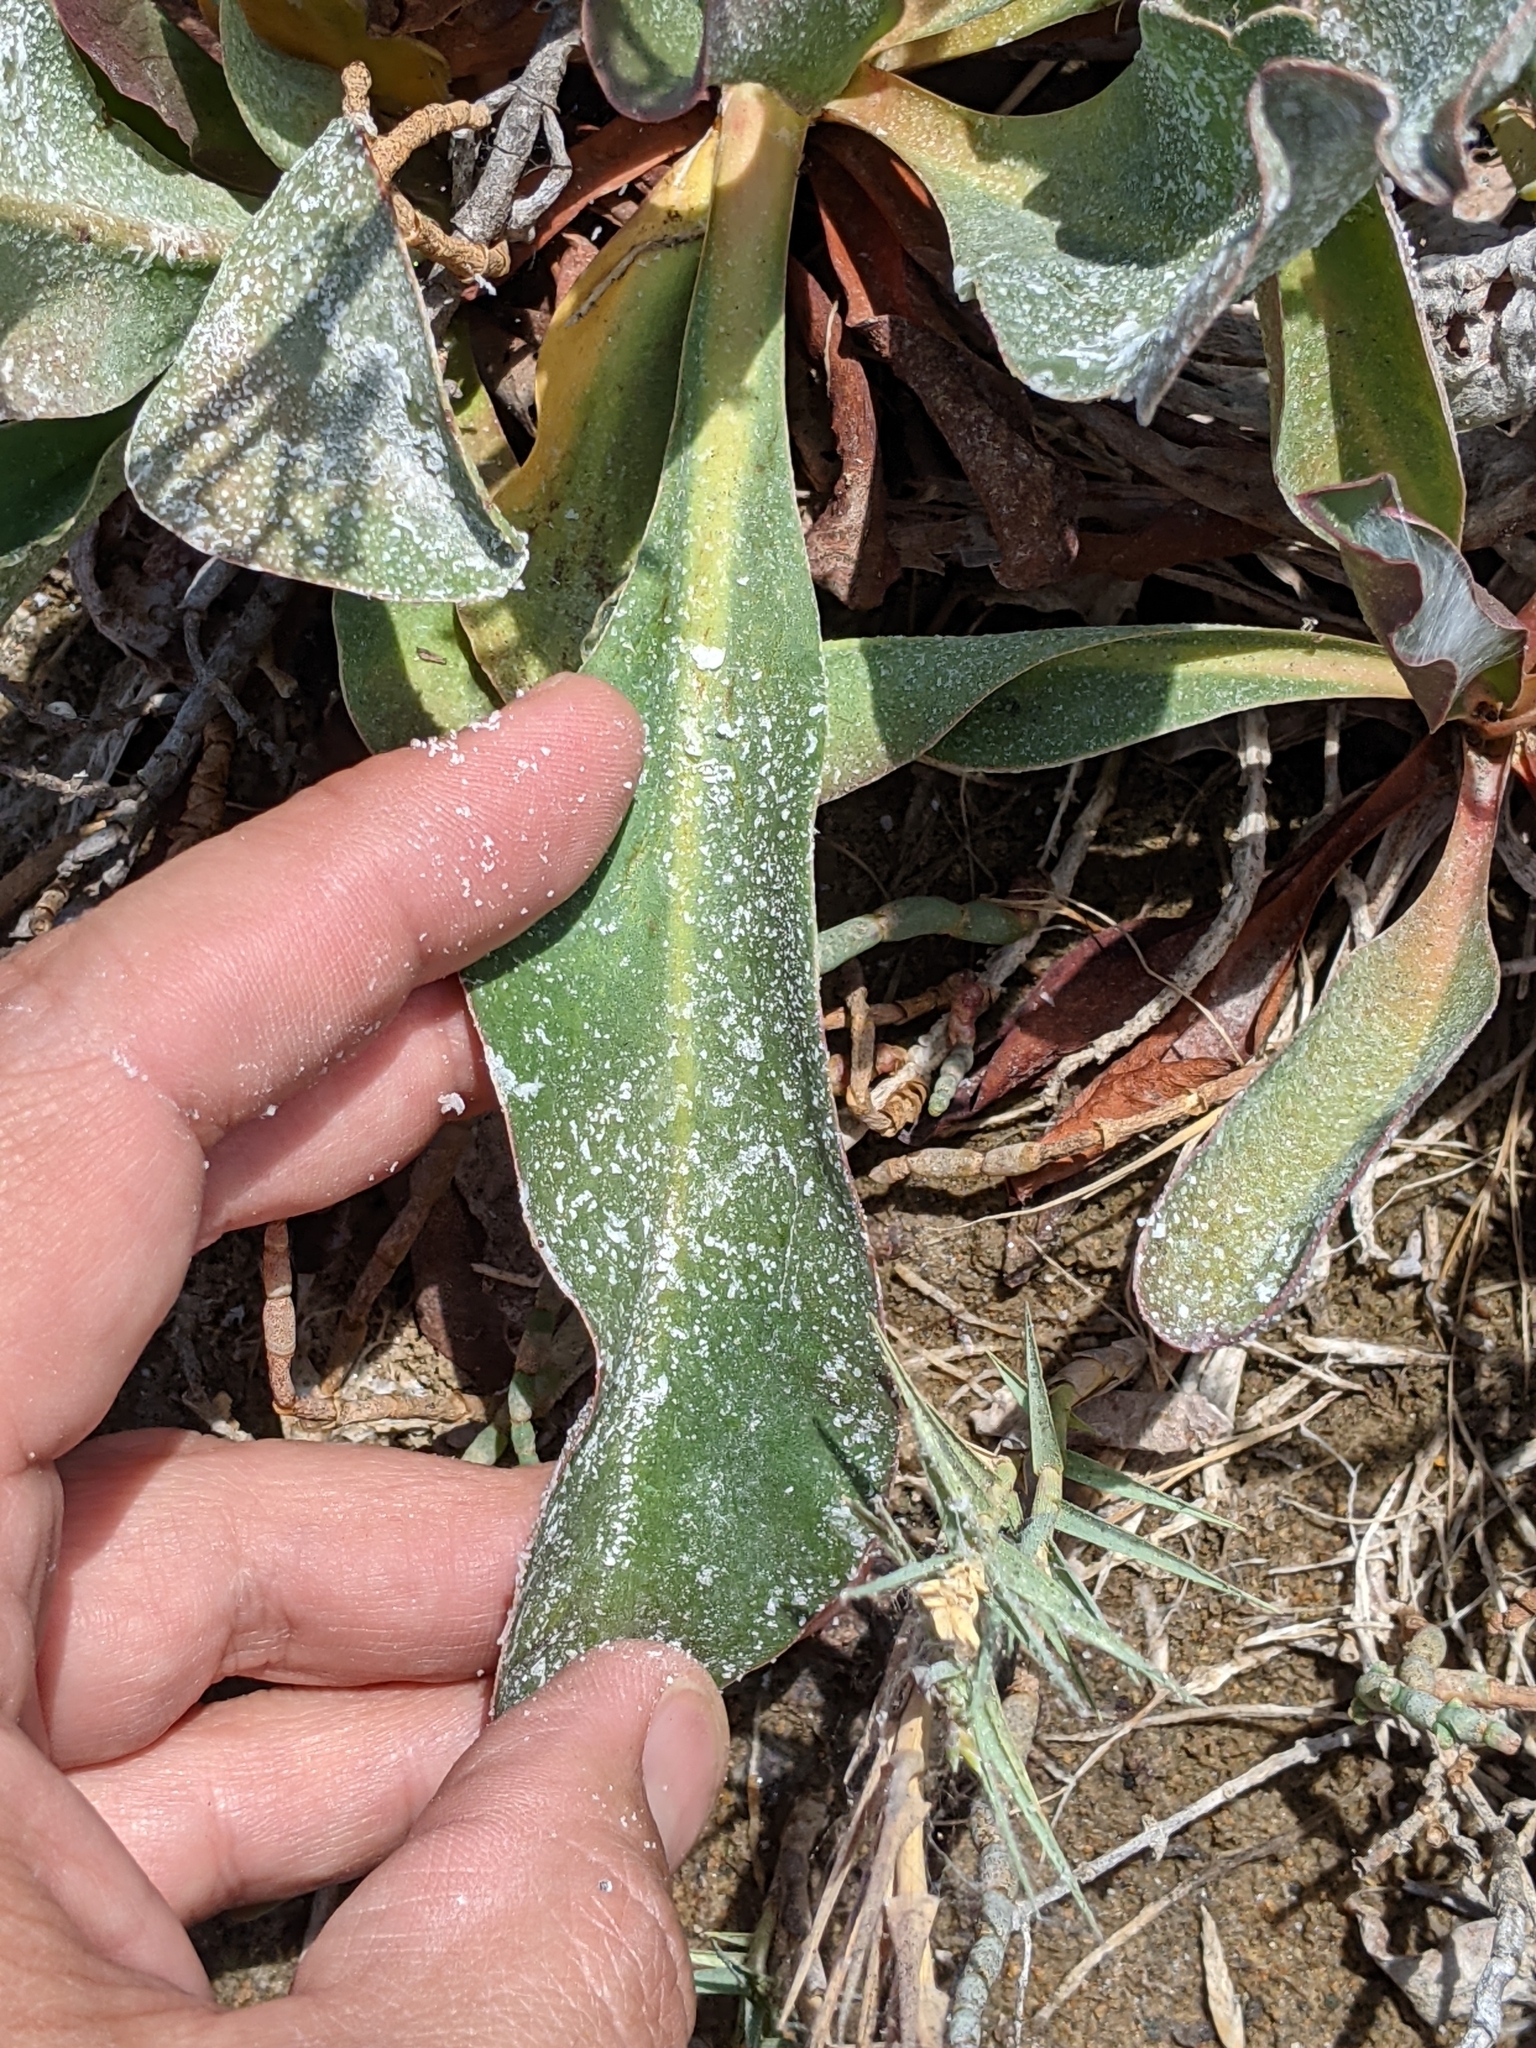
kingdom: Plantae
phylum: Tracheophyta
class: Magnoliopsida
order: Caryophyllales
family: Plumbaginaceae
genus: Limonium
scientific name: Limonium californicum
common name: Marsh-rosemary
